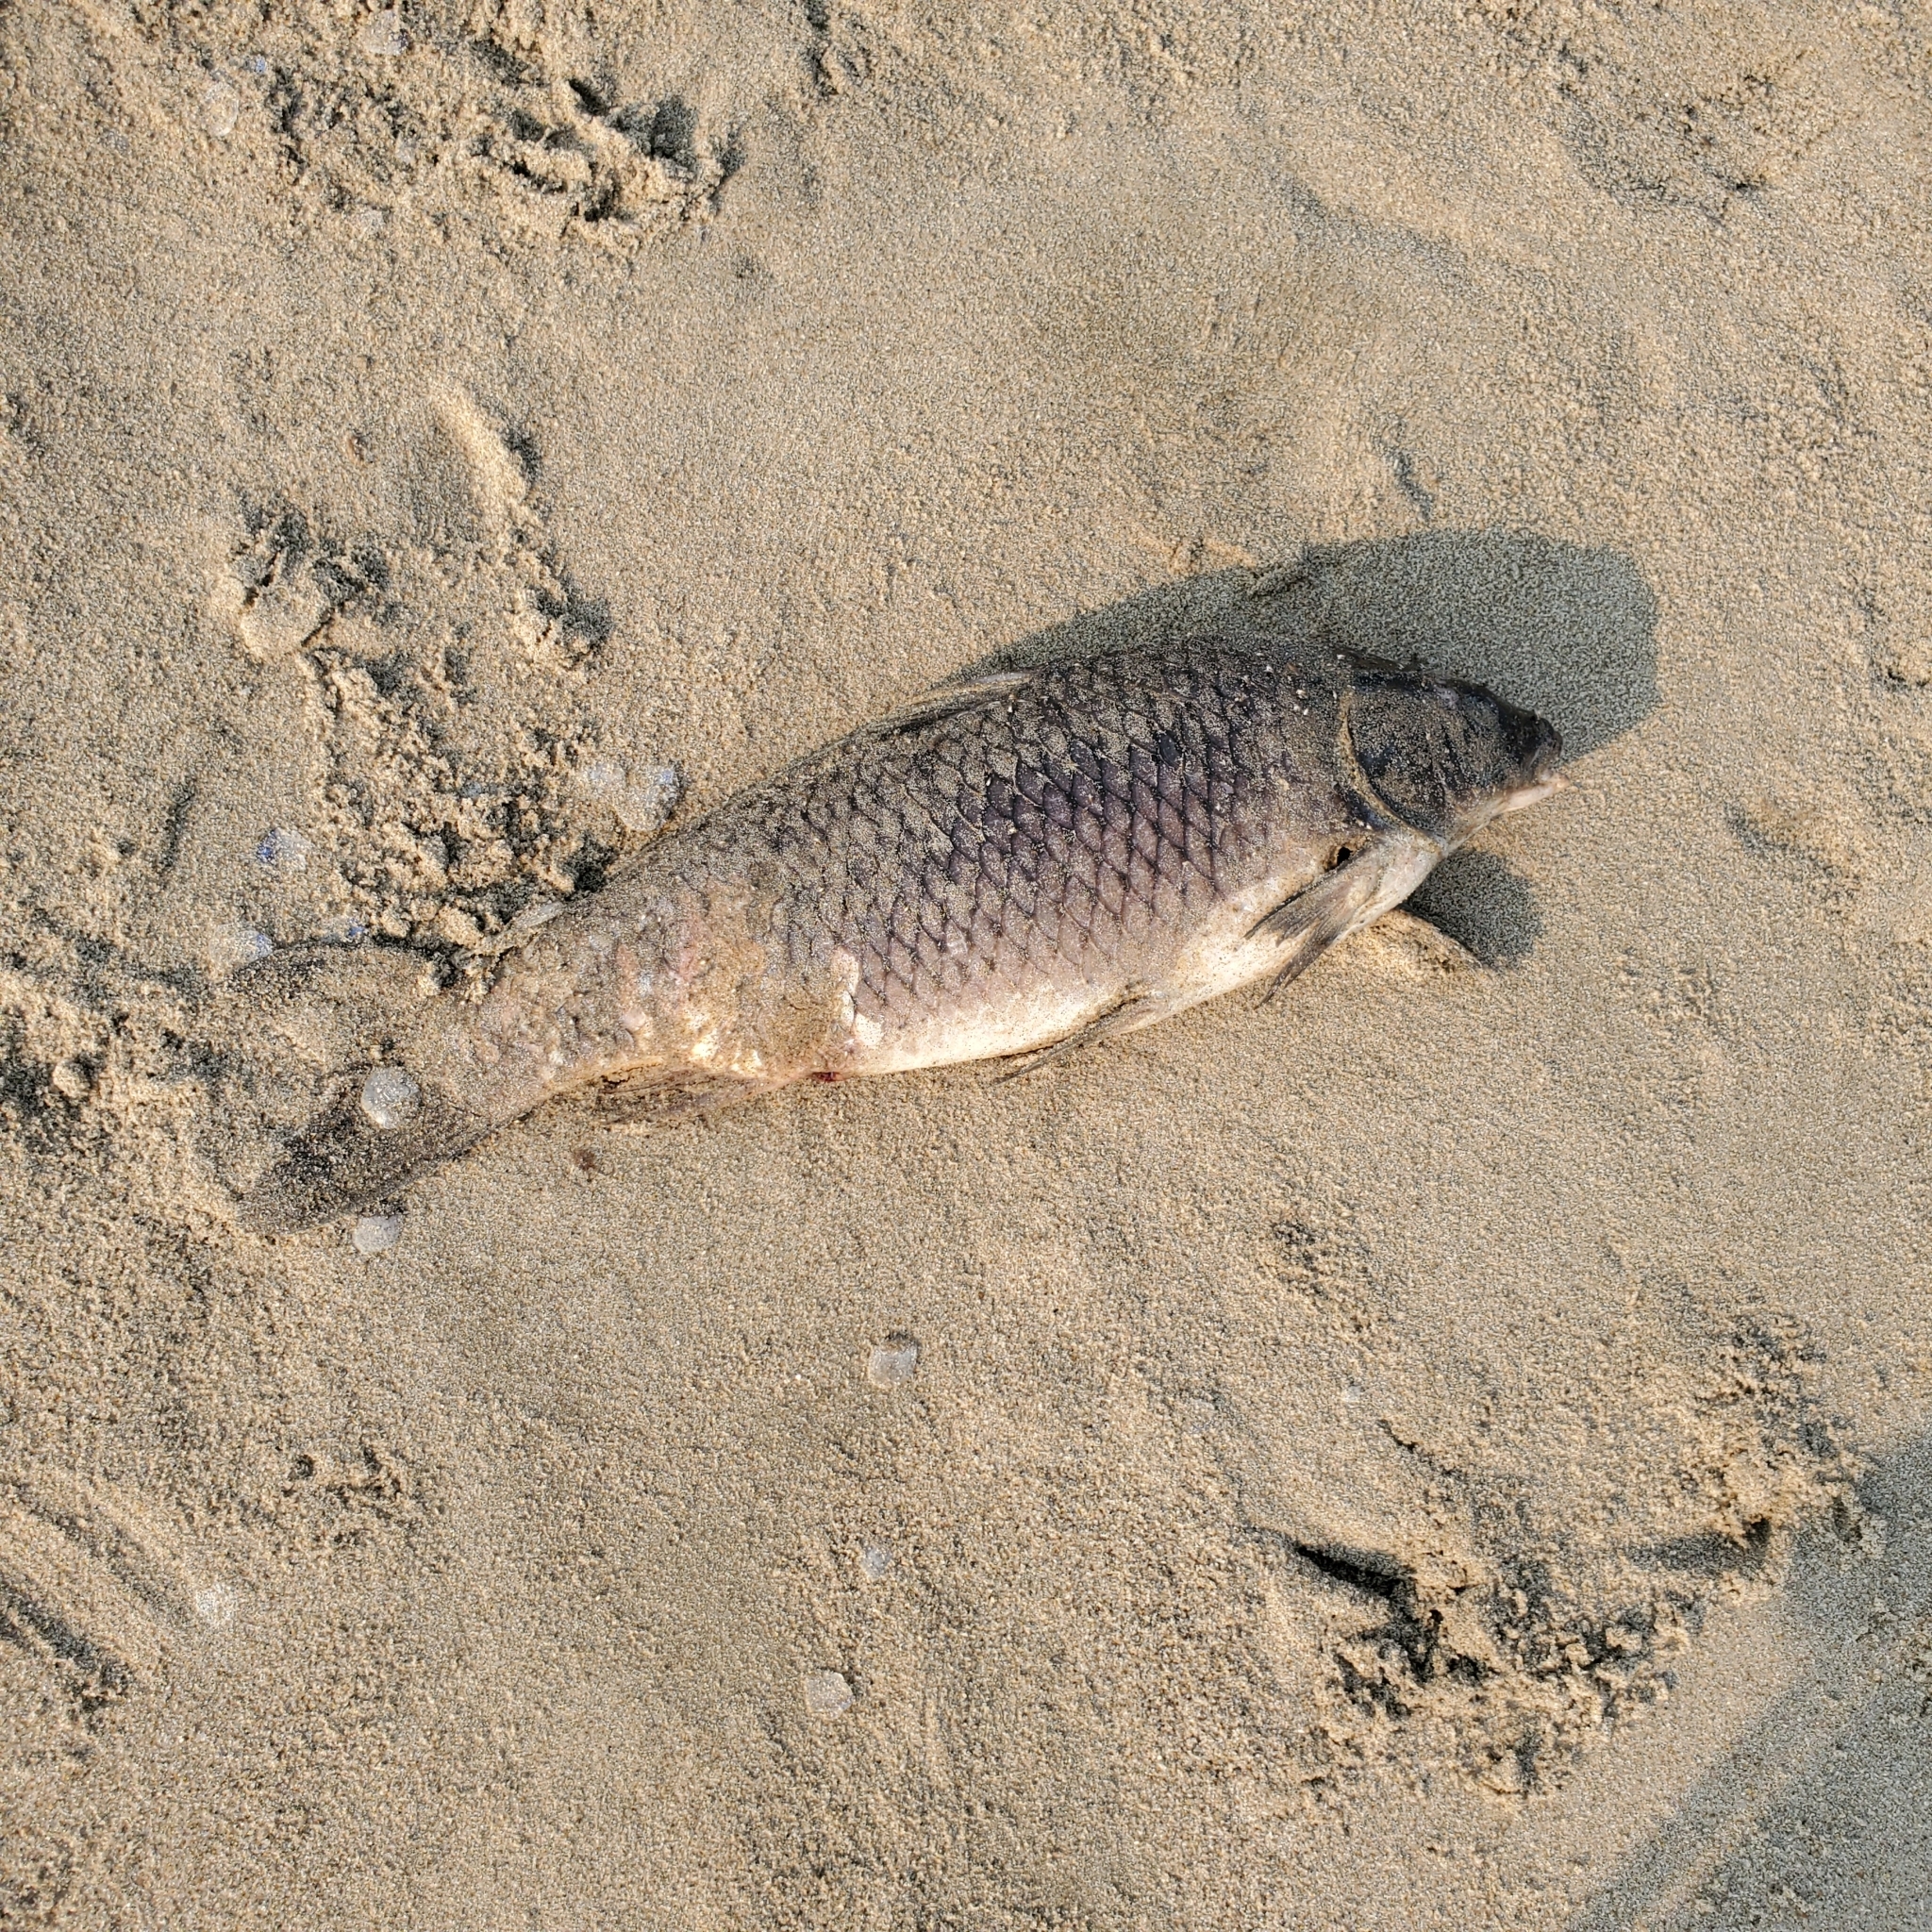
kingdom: Animalia
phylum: Chordata
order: Cypriniformes
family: Cyprinidae
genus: Cyprinus
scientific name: Cyprinus carpio
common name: Common carp
